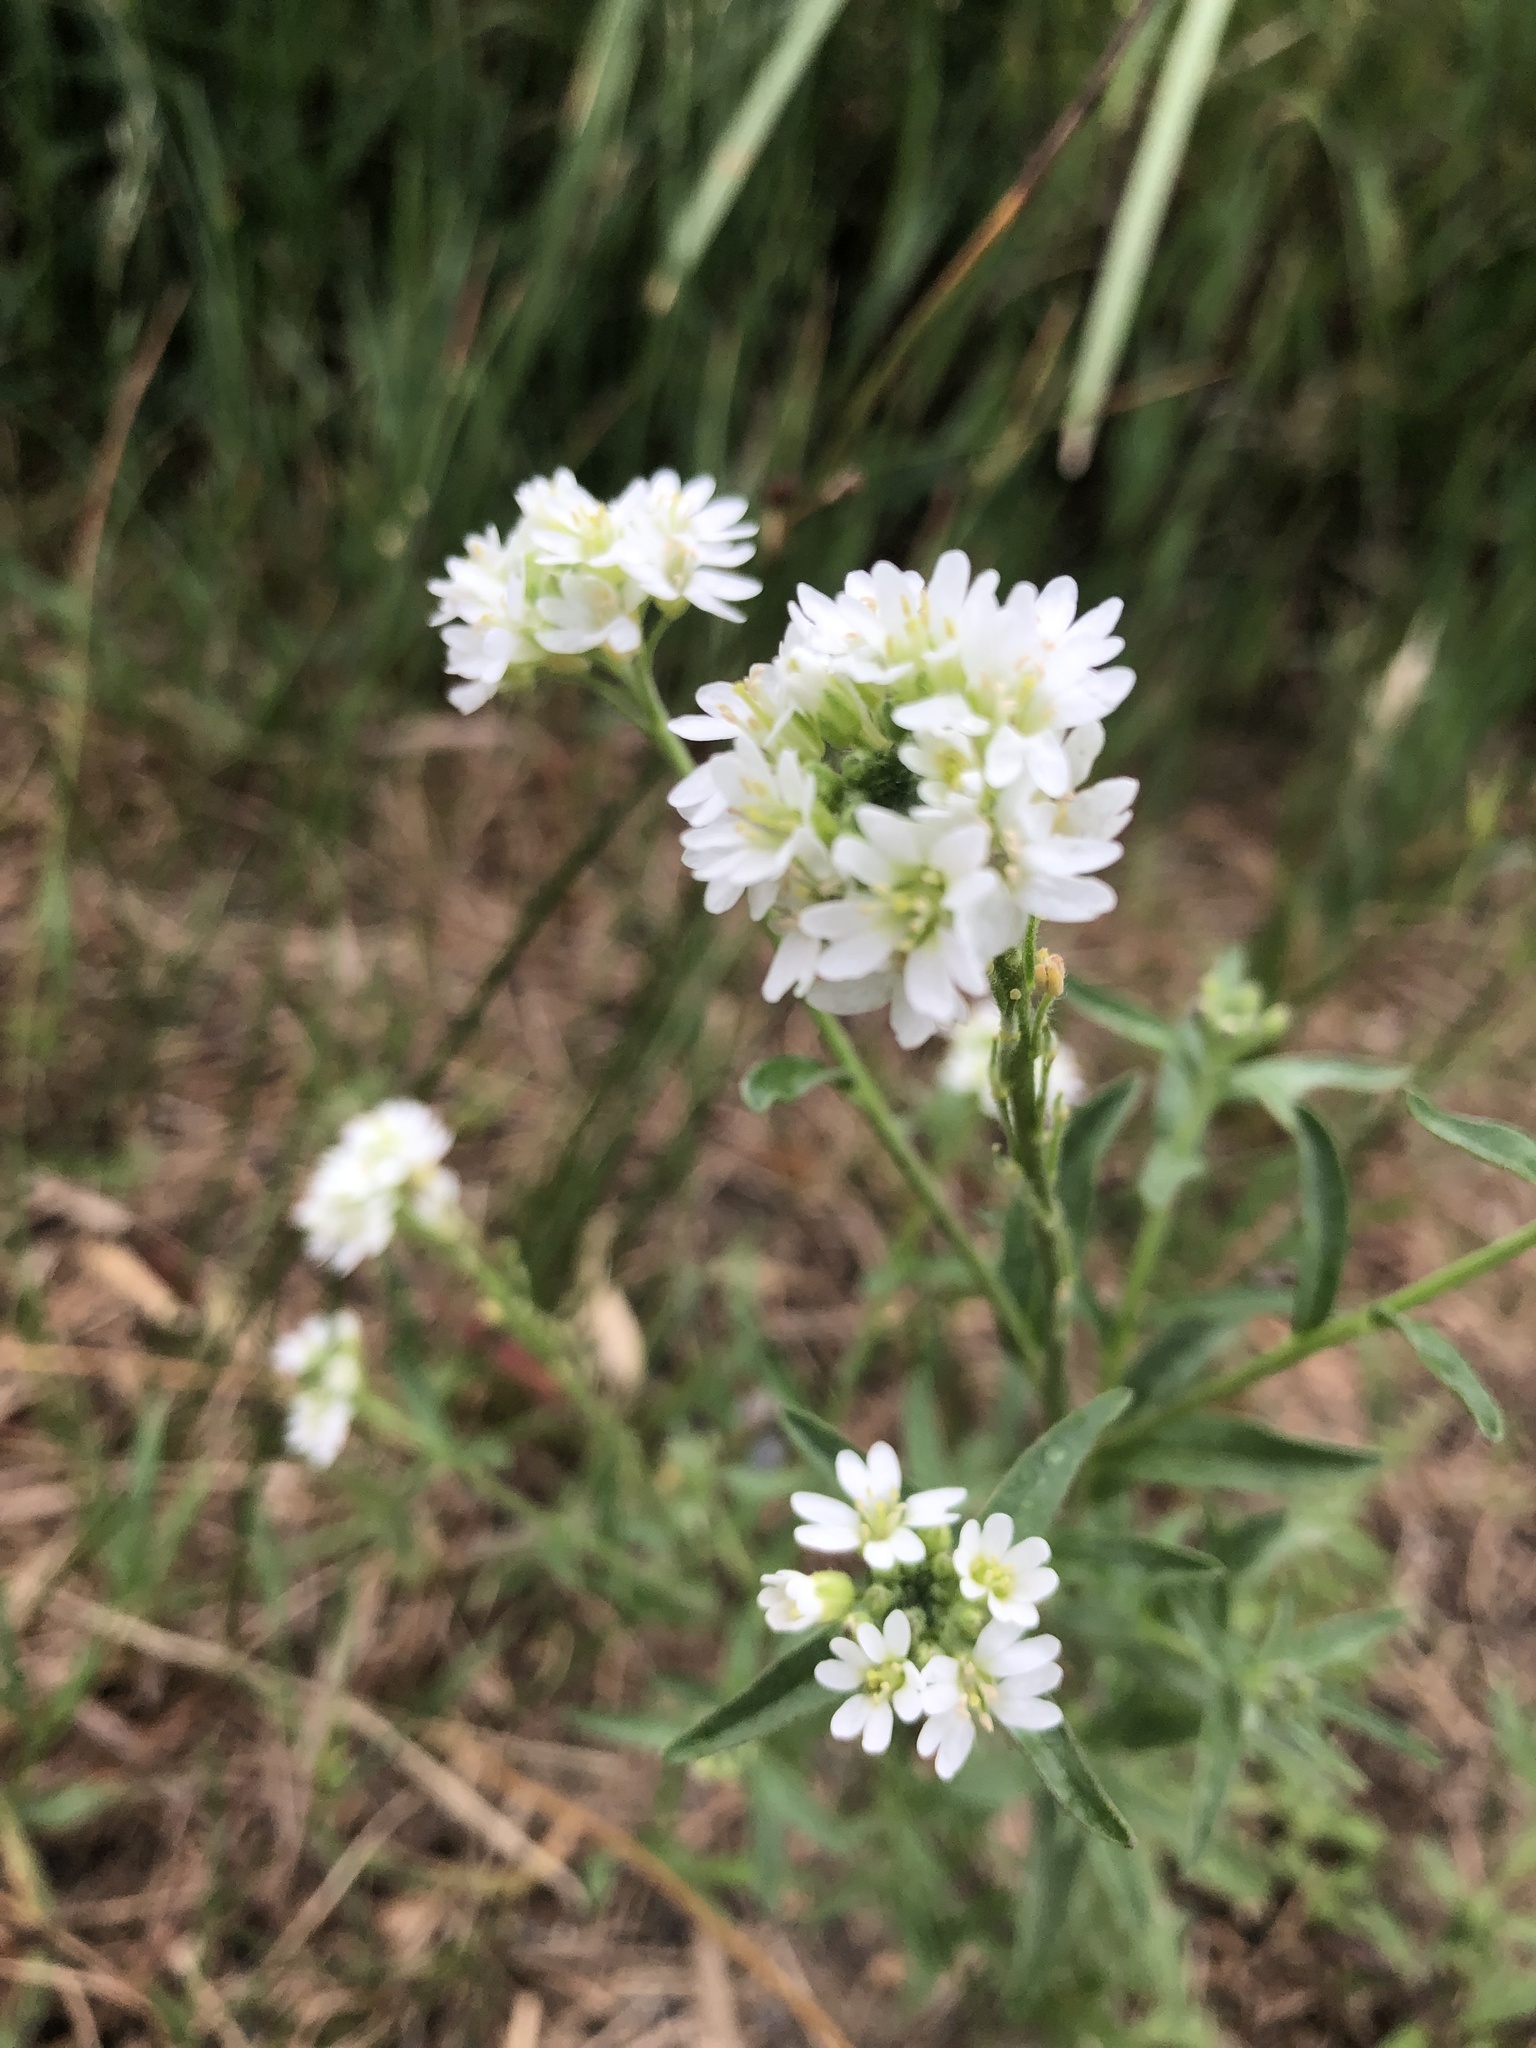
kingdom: Plantae
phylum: Tracheophyta
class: Magnoliopsida
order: Brassicales
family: Brassicaceae
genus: Berteroa
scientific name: Berteroa incana
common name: Hoary alison
